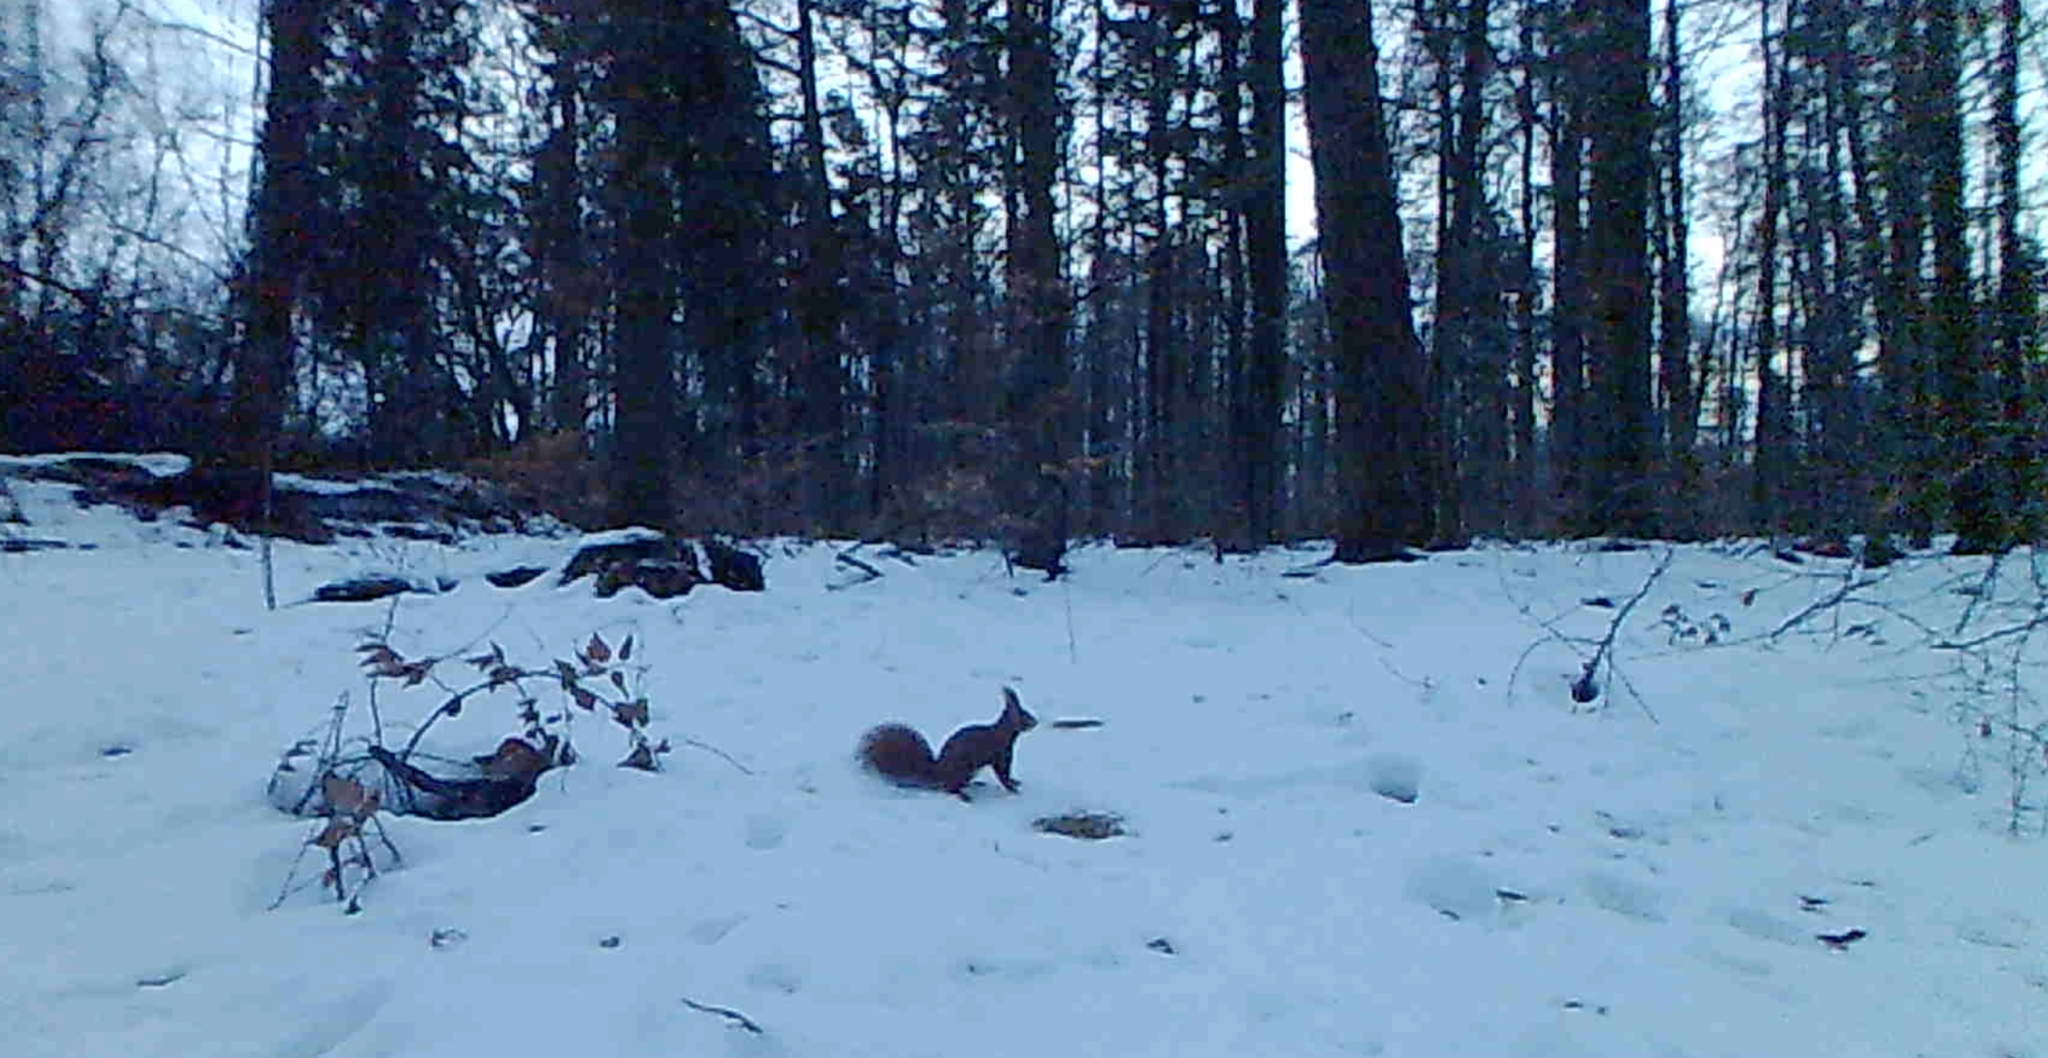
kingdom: Animalia
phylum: Chordata
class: Mammalia
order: Rodentia
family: Sciuridae
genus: Sciurus
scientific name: Sciurus vulgaris
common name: Eurasian red squirrel
